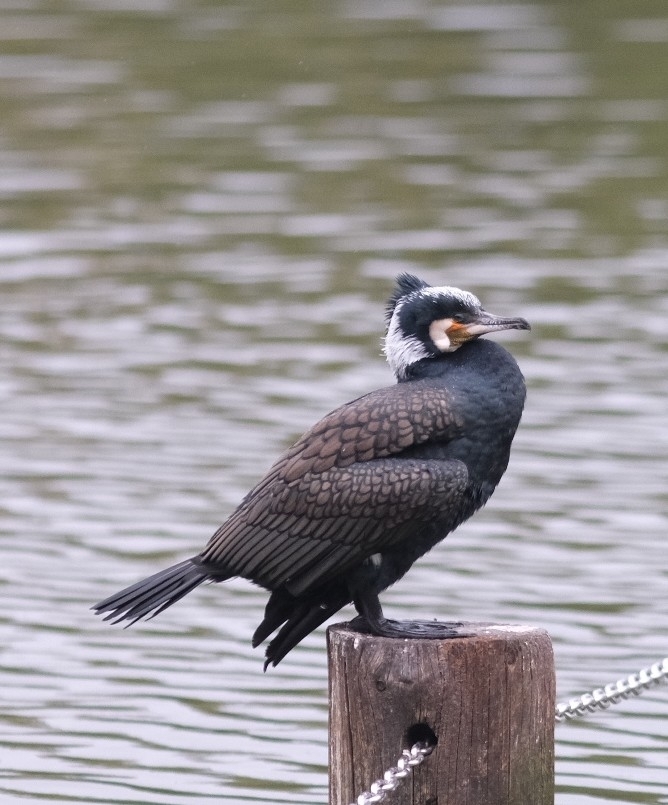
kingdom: Animalia
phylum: Chordata
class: Aves
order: Suliformes
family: Phalacrocoracidae
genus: Phalacrocorax
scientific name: Phalacrocorax carbo
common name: Great cormorant
